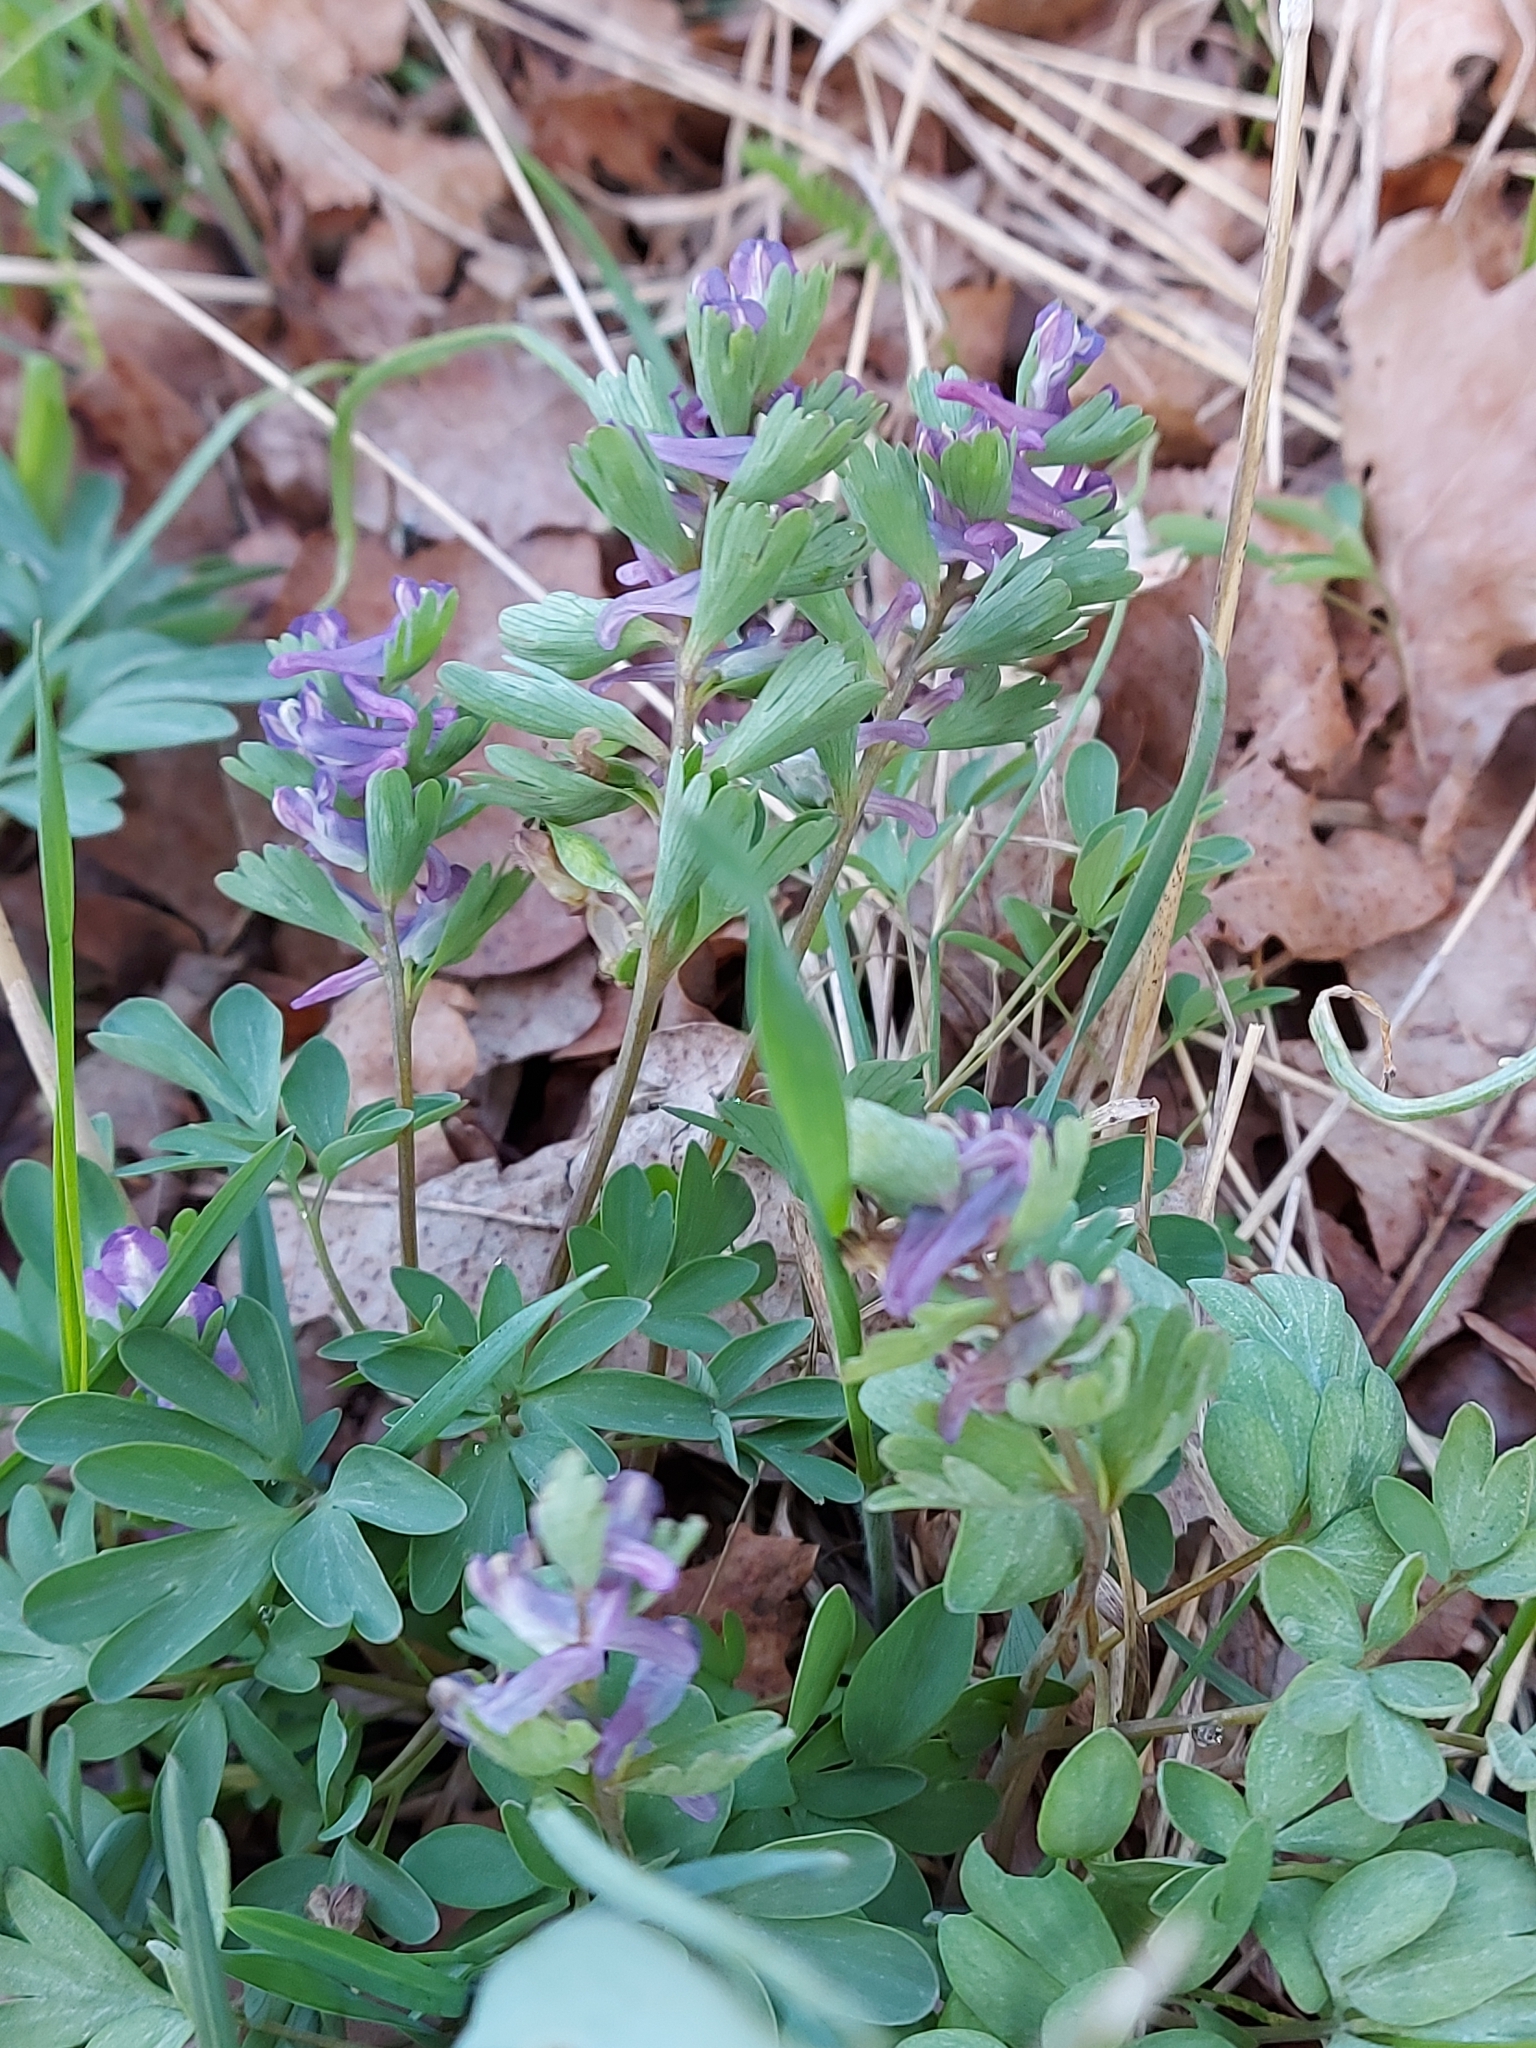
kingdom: Plantae
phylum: Tracheophyta
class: Magnoliopsida
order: Ranunculales
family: Papaveraceae
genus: Corydalis
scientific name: Corydalis pumila
